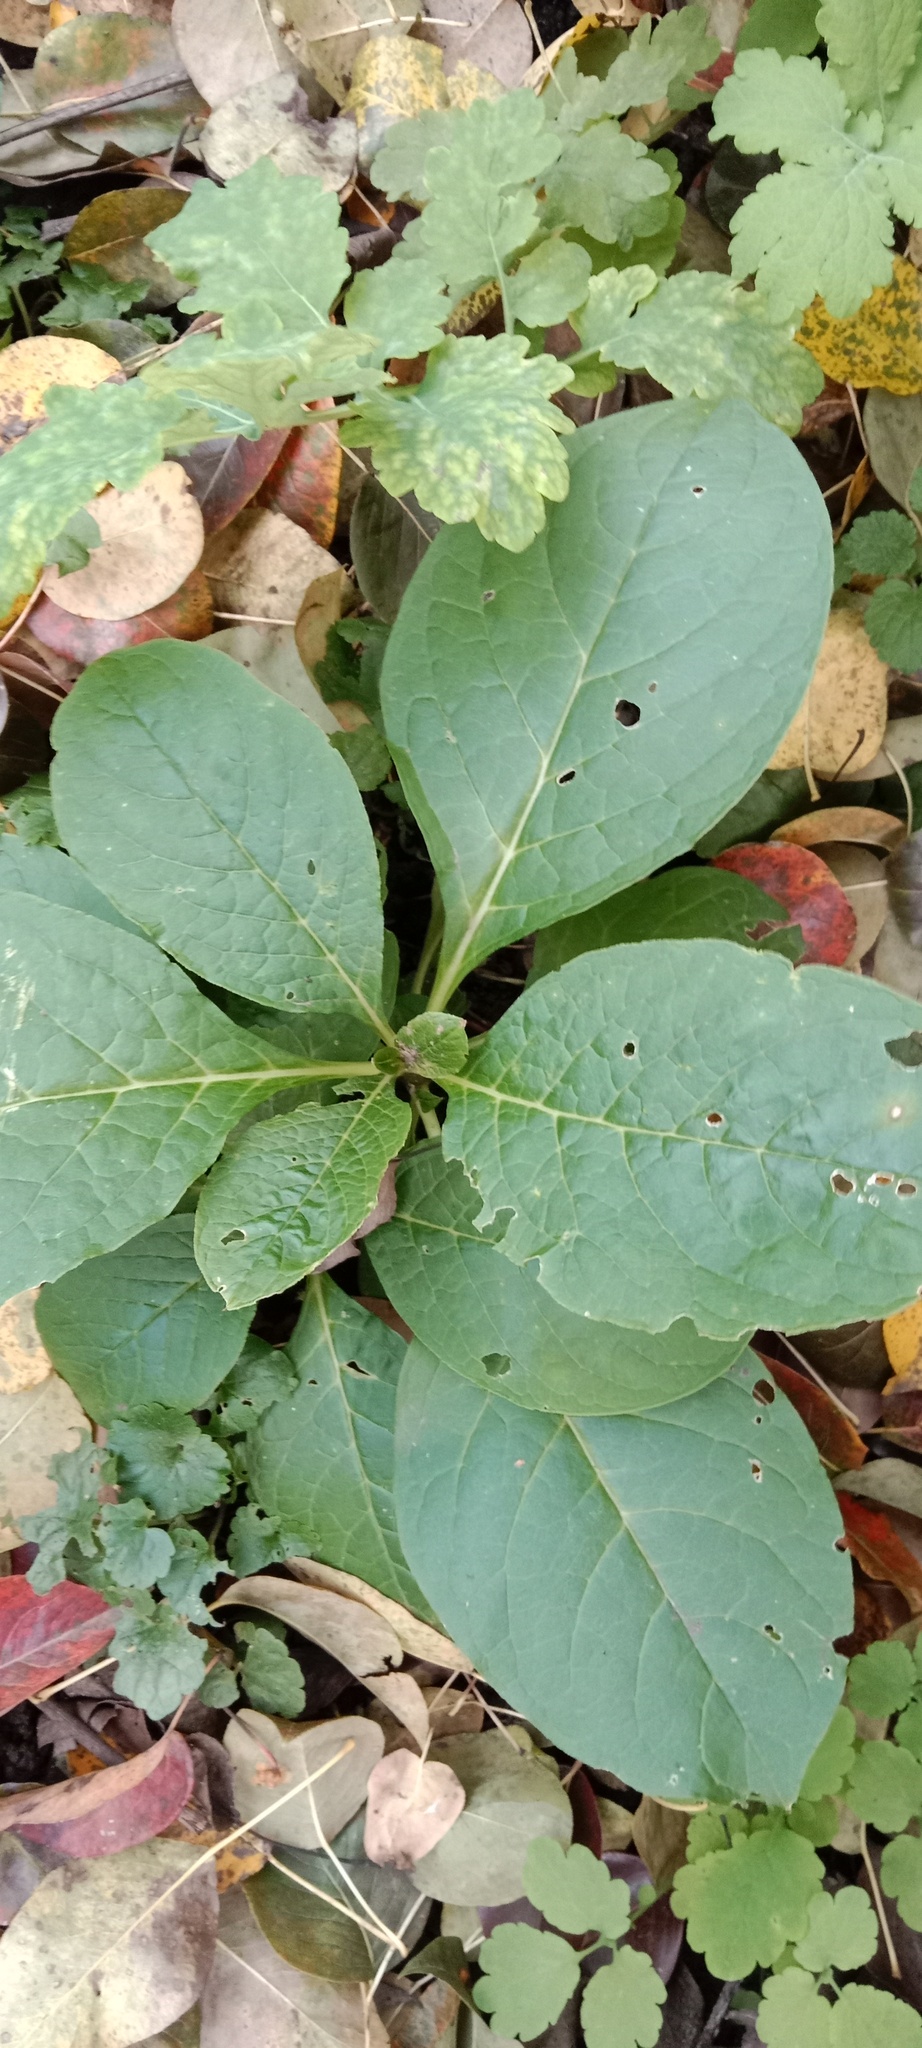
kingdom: Plantae
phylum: Tracheophyta
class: Magnoliopsida
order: Caryophyllales
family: Phytolaccaceae
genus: Phytolacca
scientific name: Phytolacca acinosa
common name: Indian pokeweed
